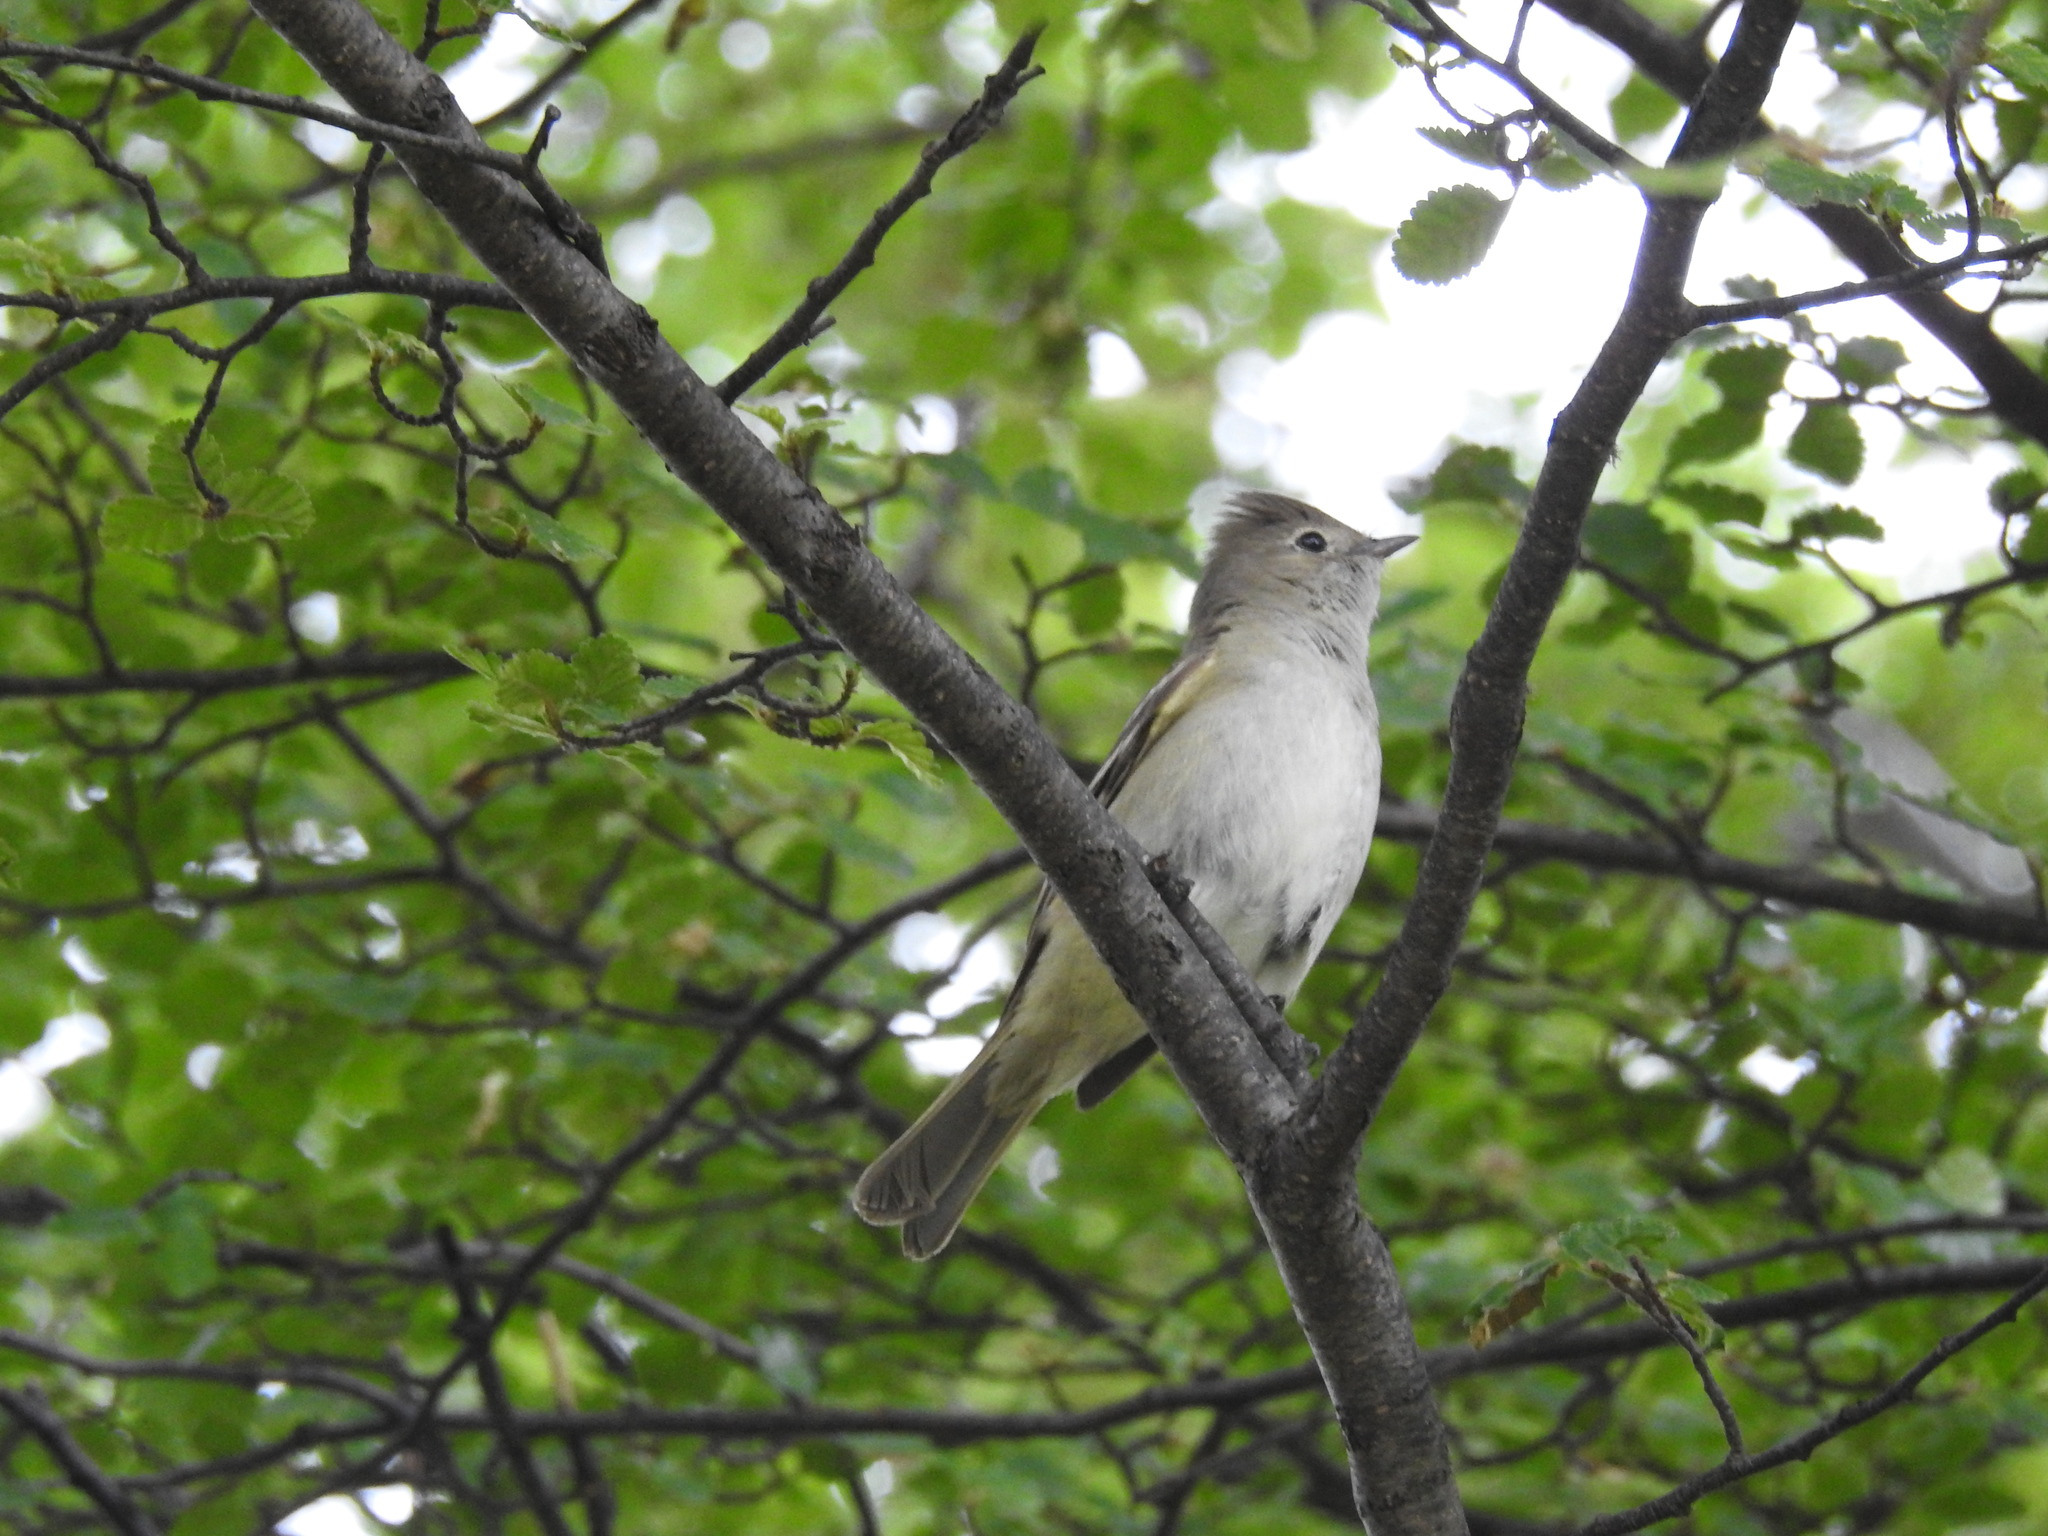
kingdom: Animalia
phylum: Chordata
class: Aves
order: Passeriformes
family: Tyrannidae
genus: Elaenia
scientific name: Elaenia albiceps
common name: White-crested elaenia
